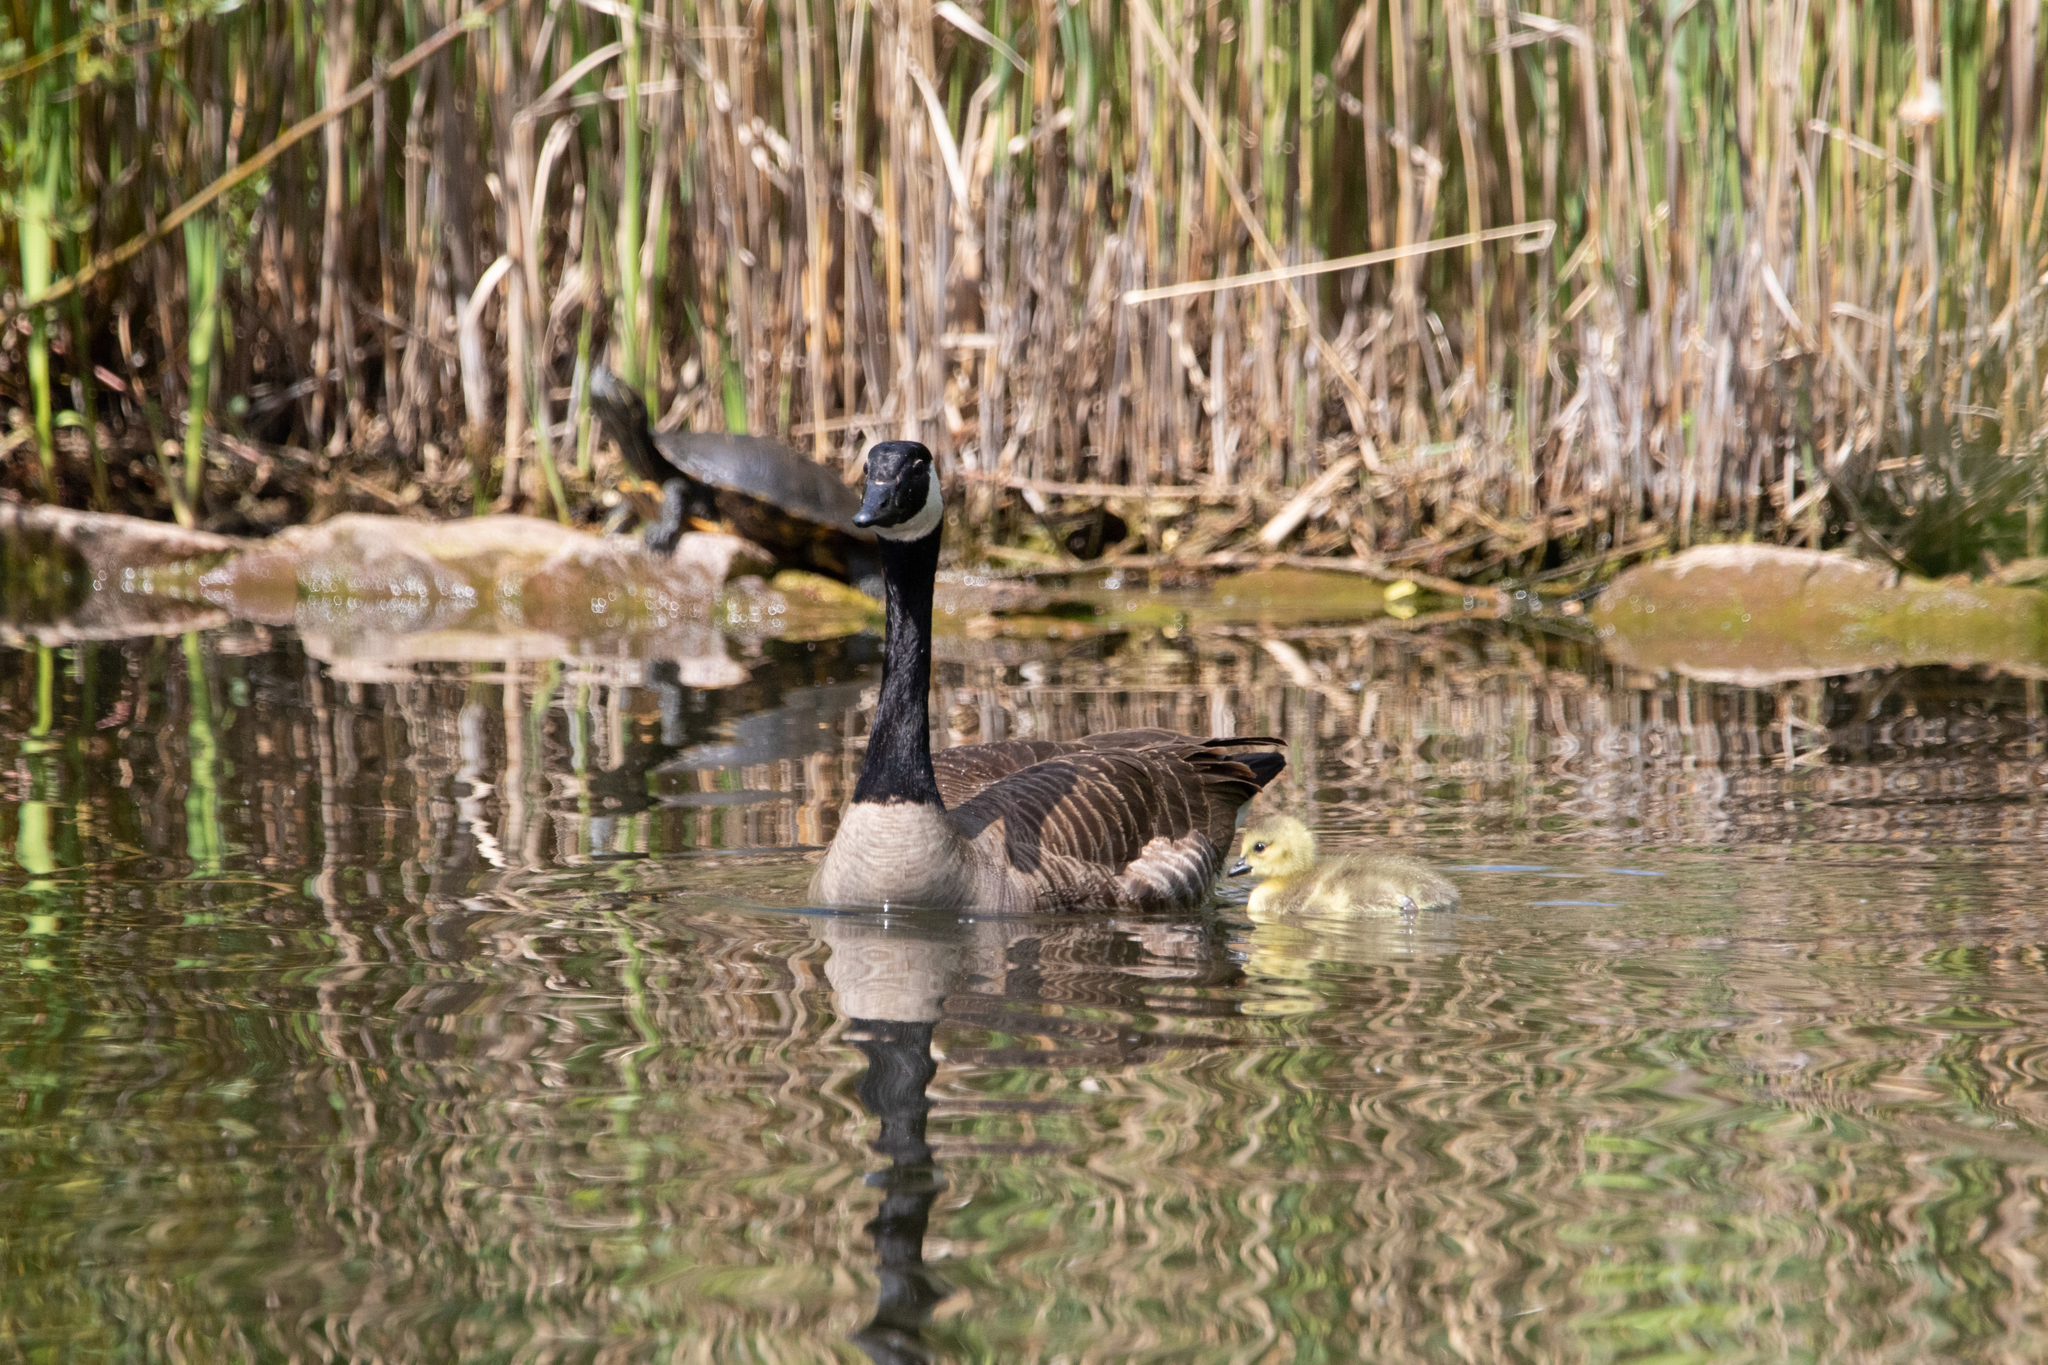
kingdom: Animalia
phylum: Chordata
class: Aves
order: Anseriformes
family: Anatidae
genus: Branta
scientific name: Branta canadensis
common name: Canada goose
